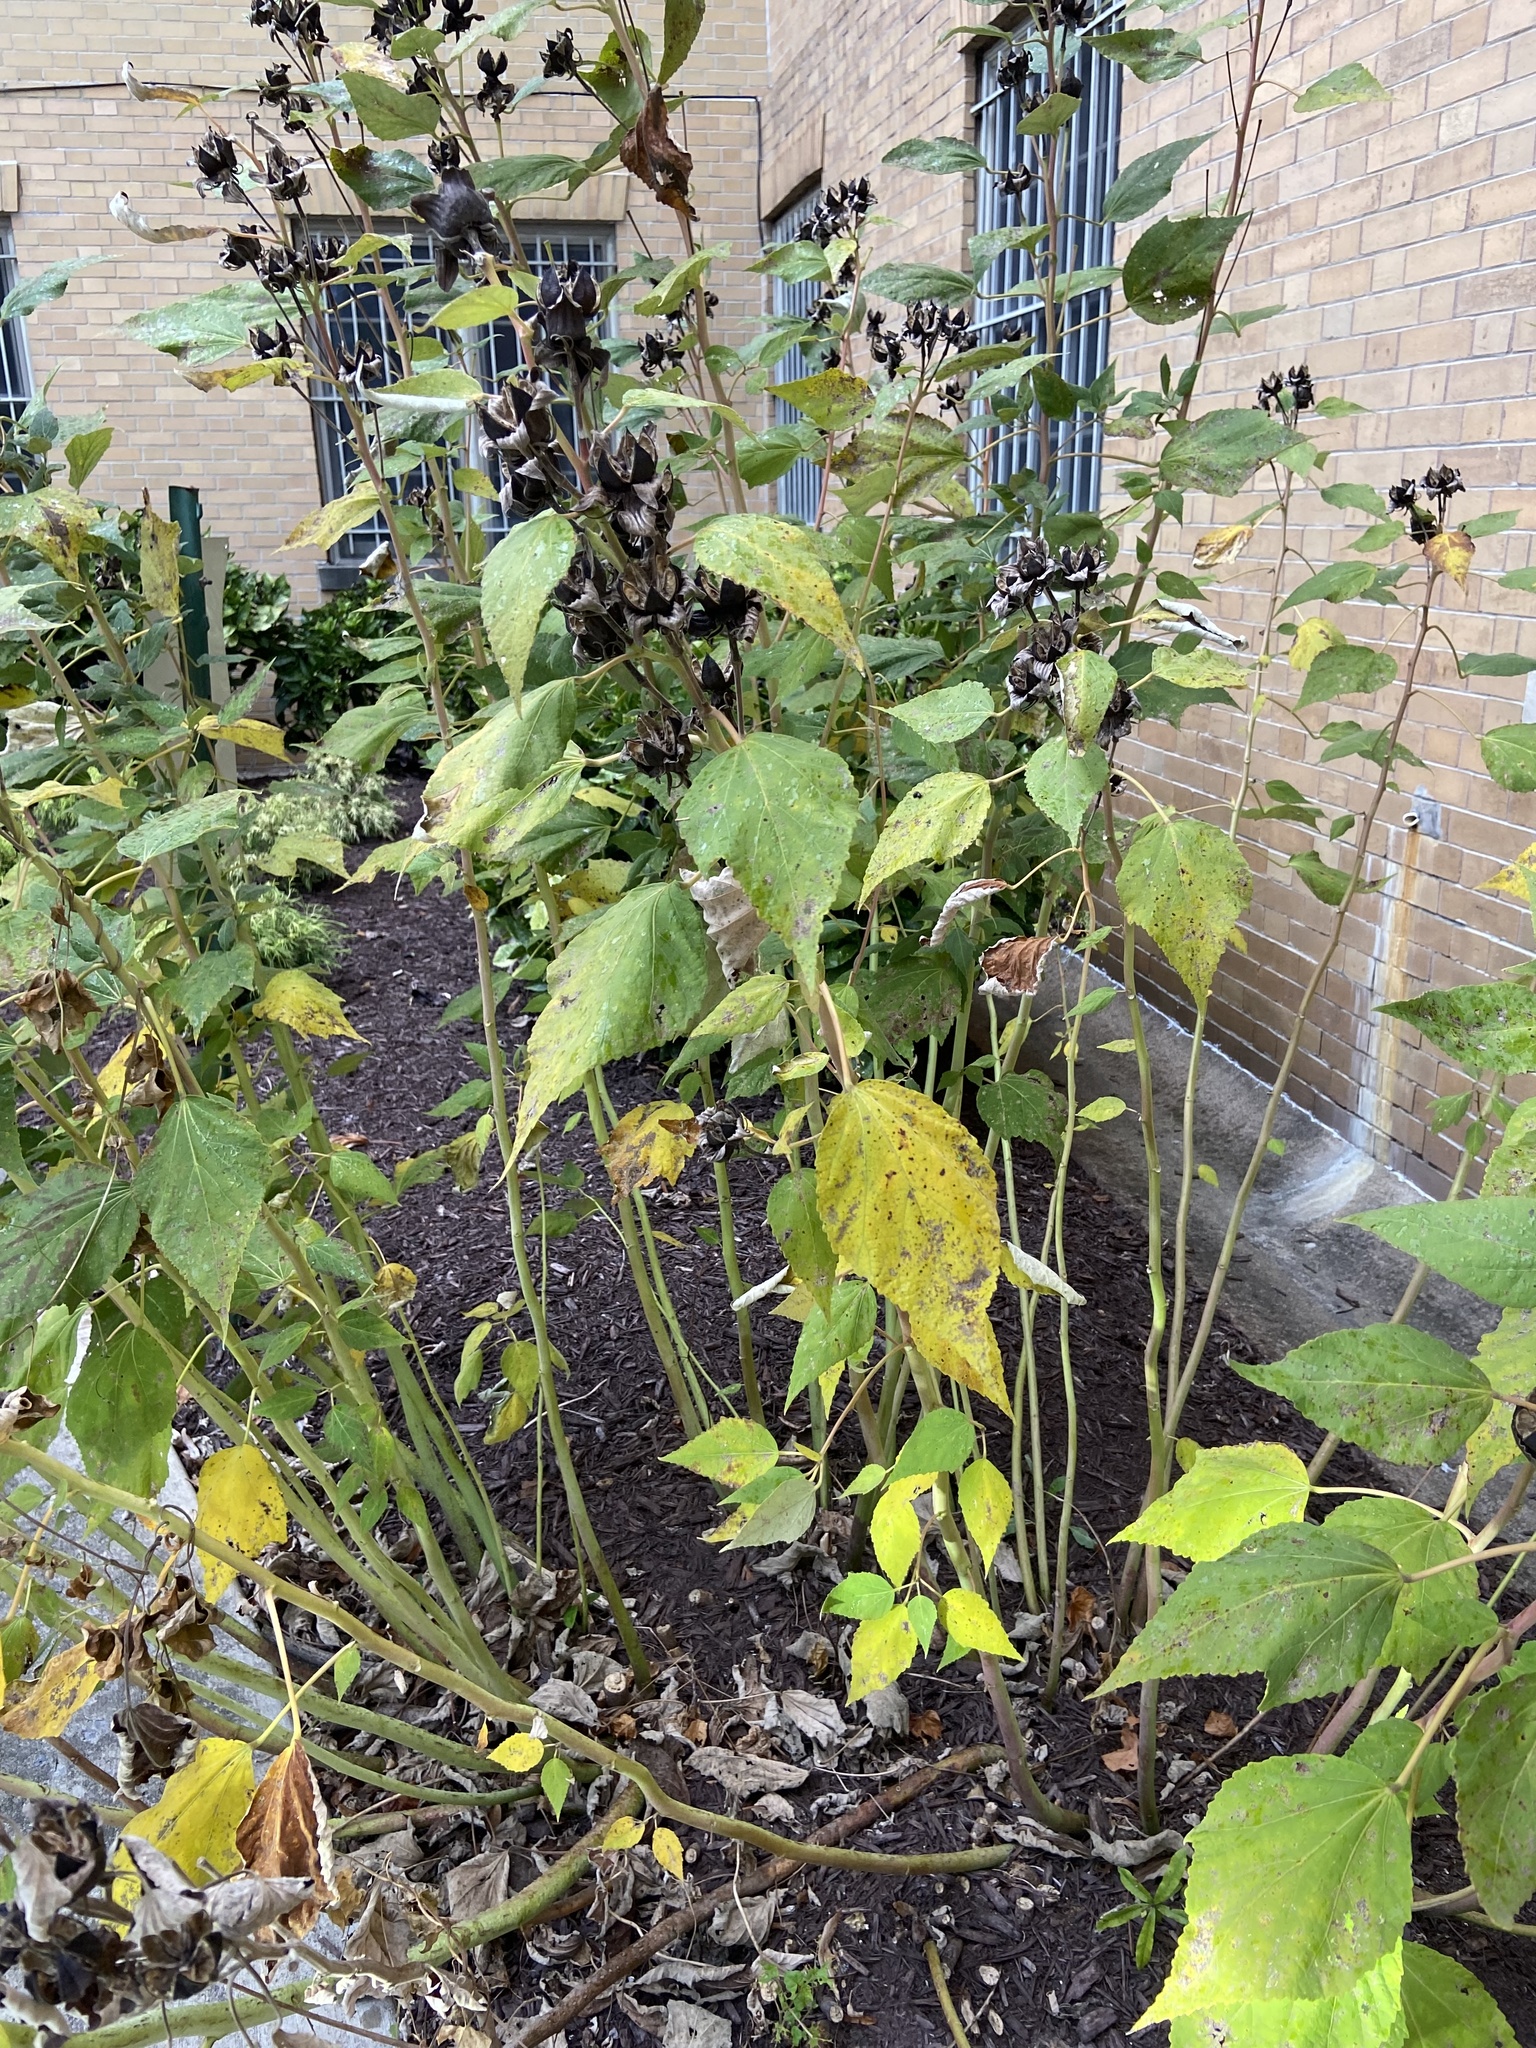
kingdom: Plantae
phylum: Tracheophyta
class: Magnoliopsida
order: Malvales
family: Malvaceae
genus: Hibiscus
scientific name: Hibiscus moscheutos
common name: Common rose-mallow
